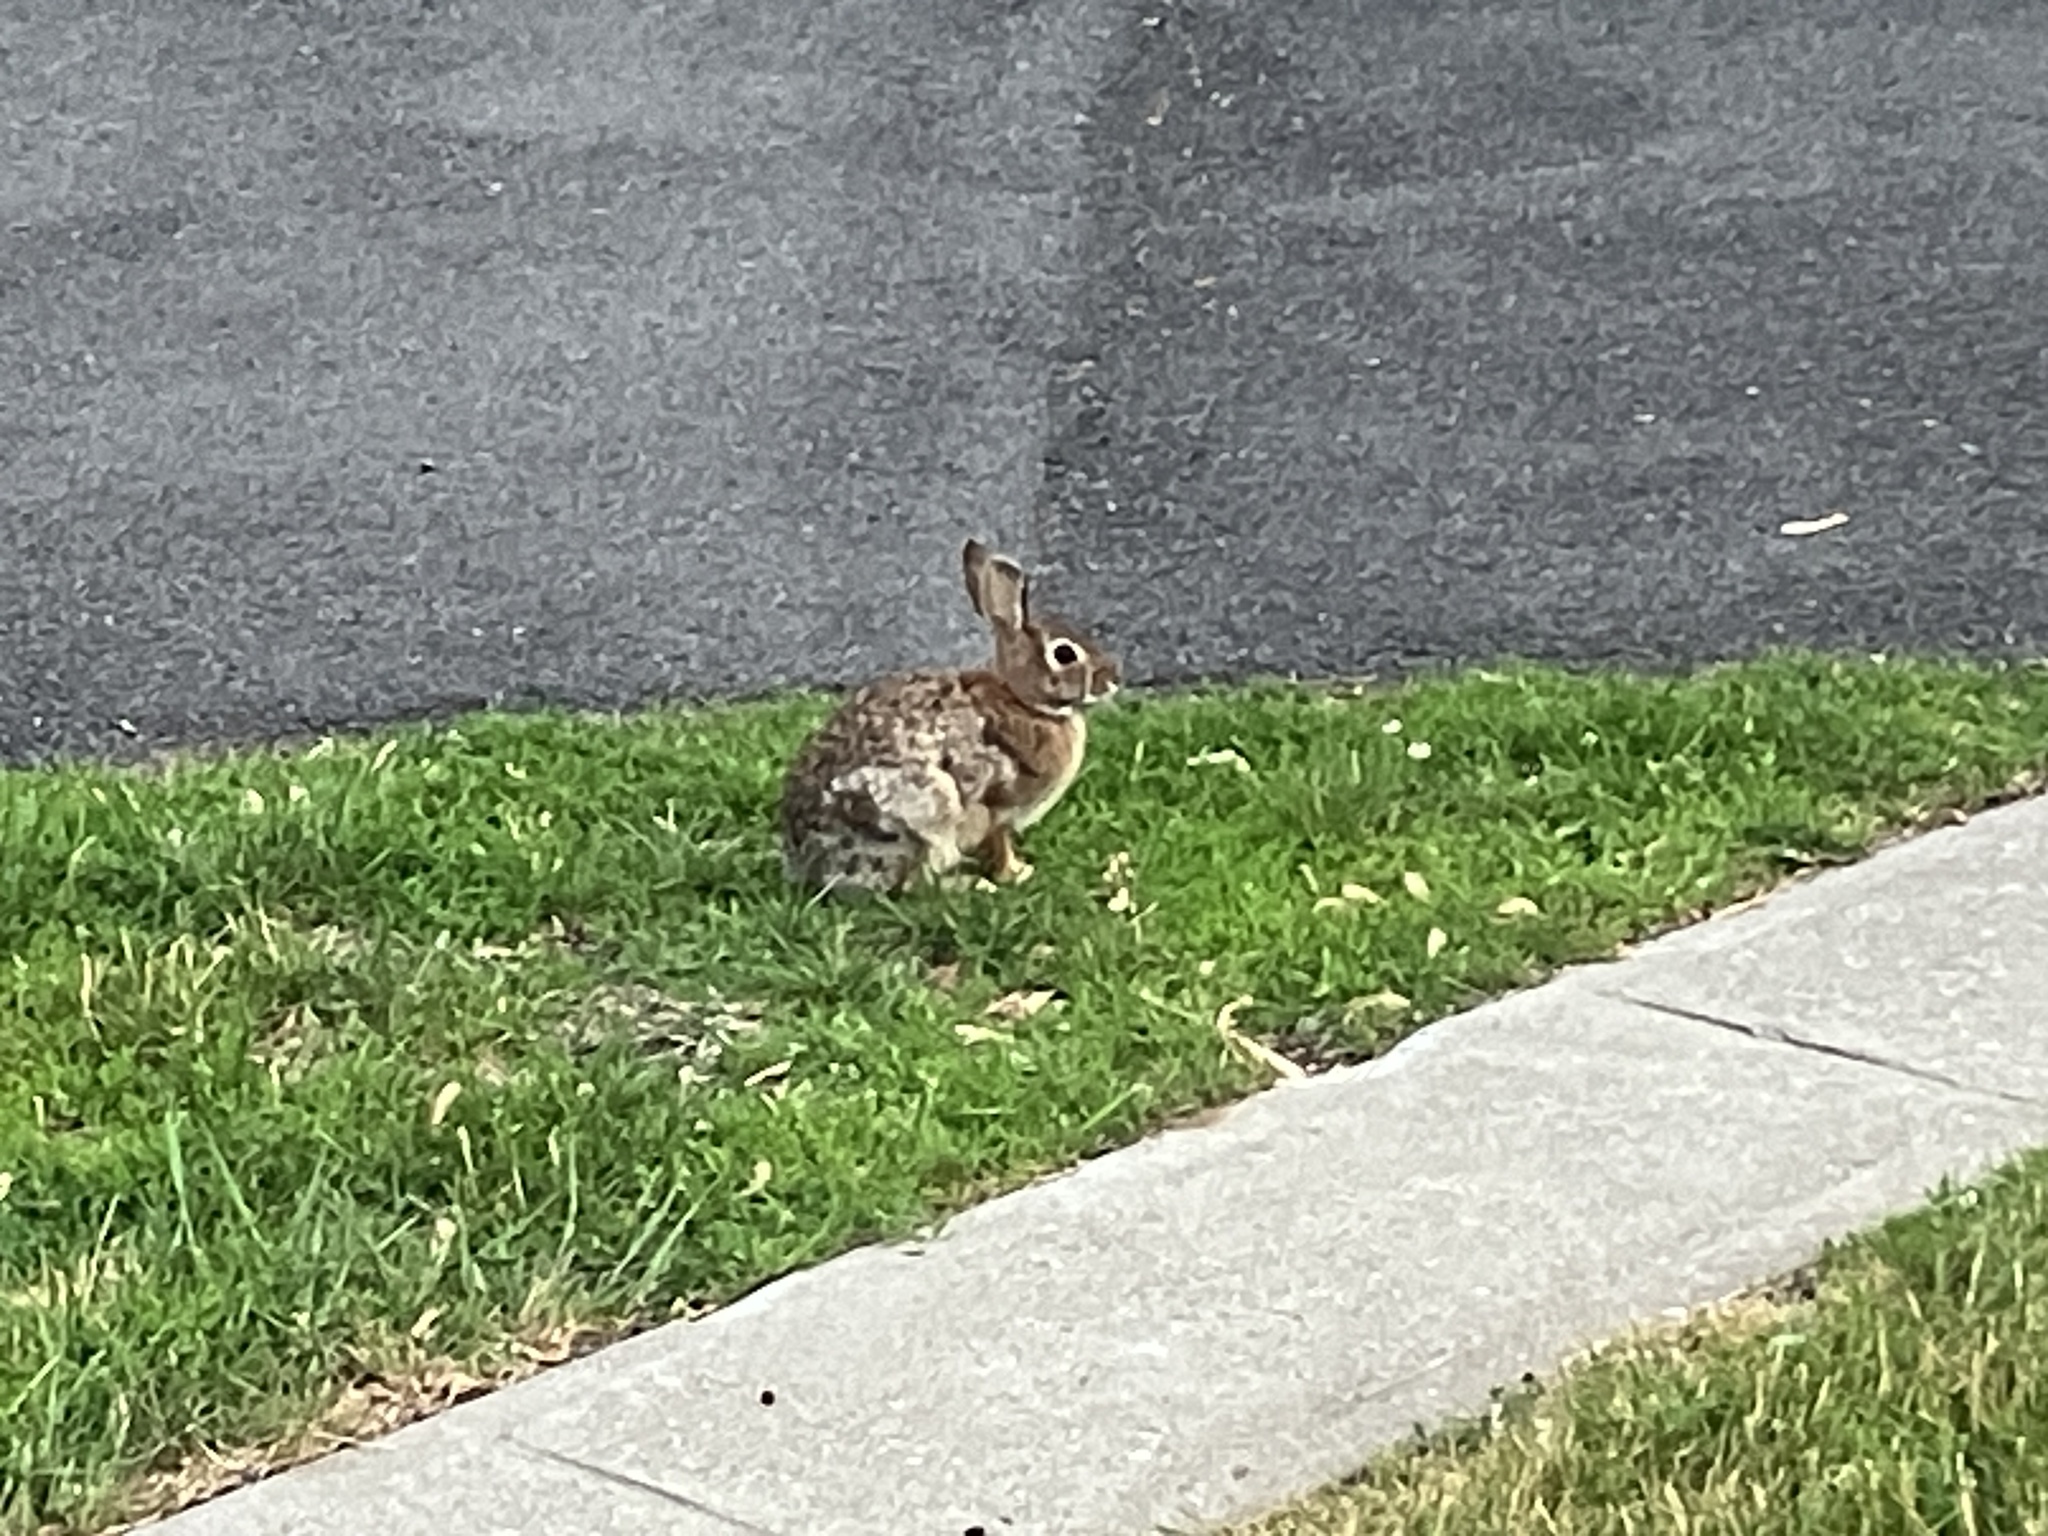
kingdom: Animalia
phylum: Chordata
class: Mammalia
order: Lagomorpha
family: Leporidae
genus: Sylvilagus
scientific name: Sylvilagus floridanus
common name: Eastern cottontail
